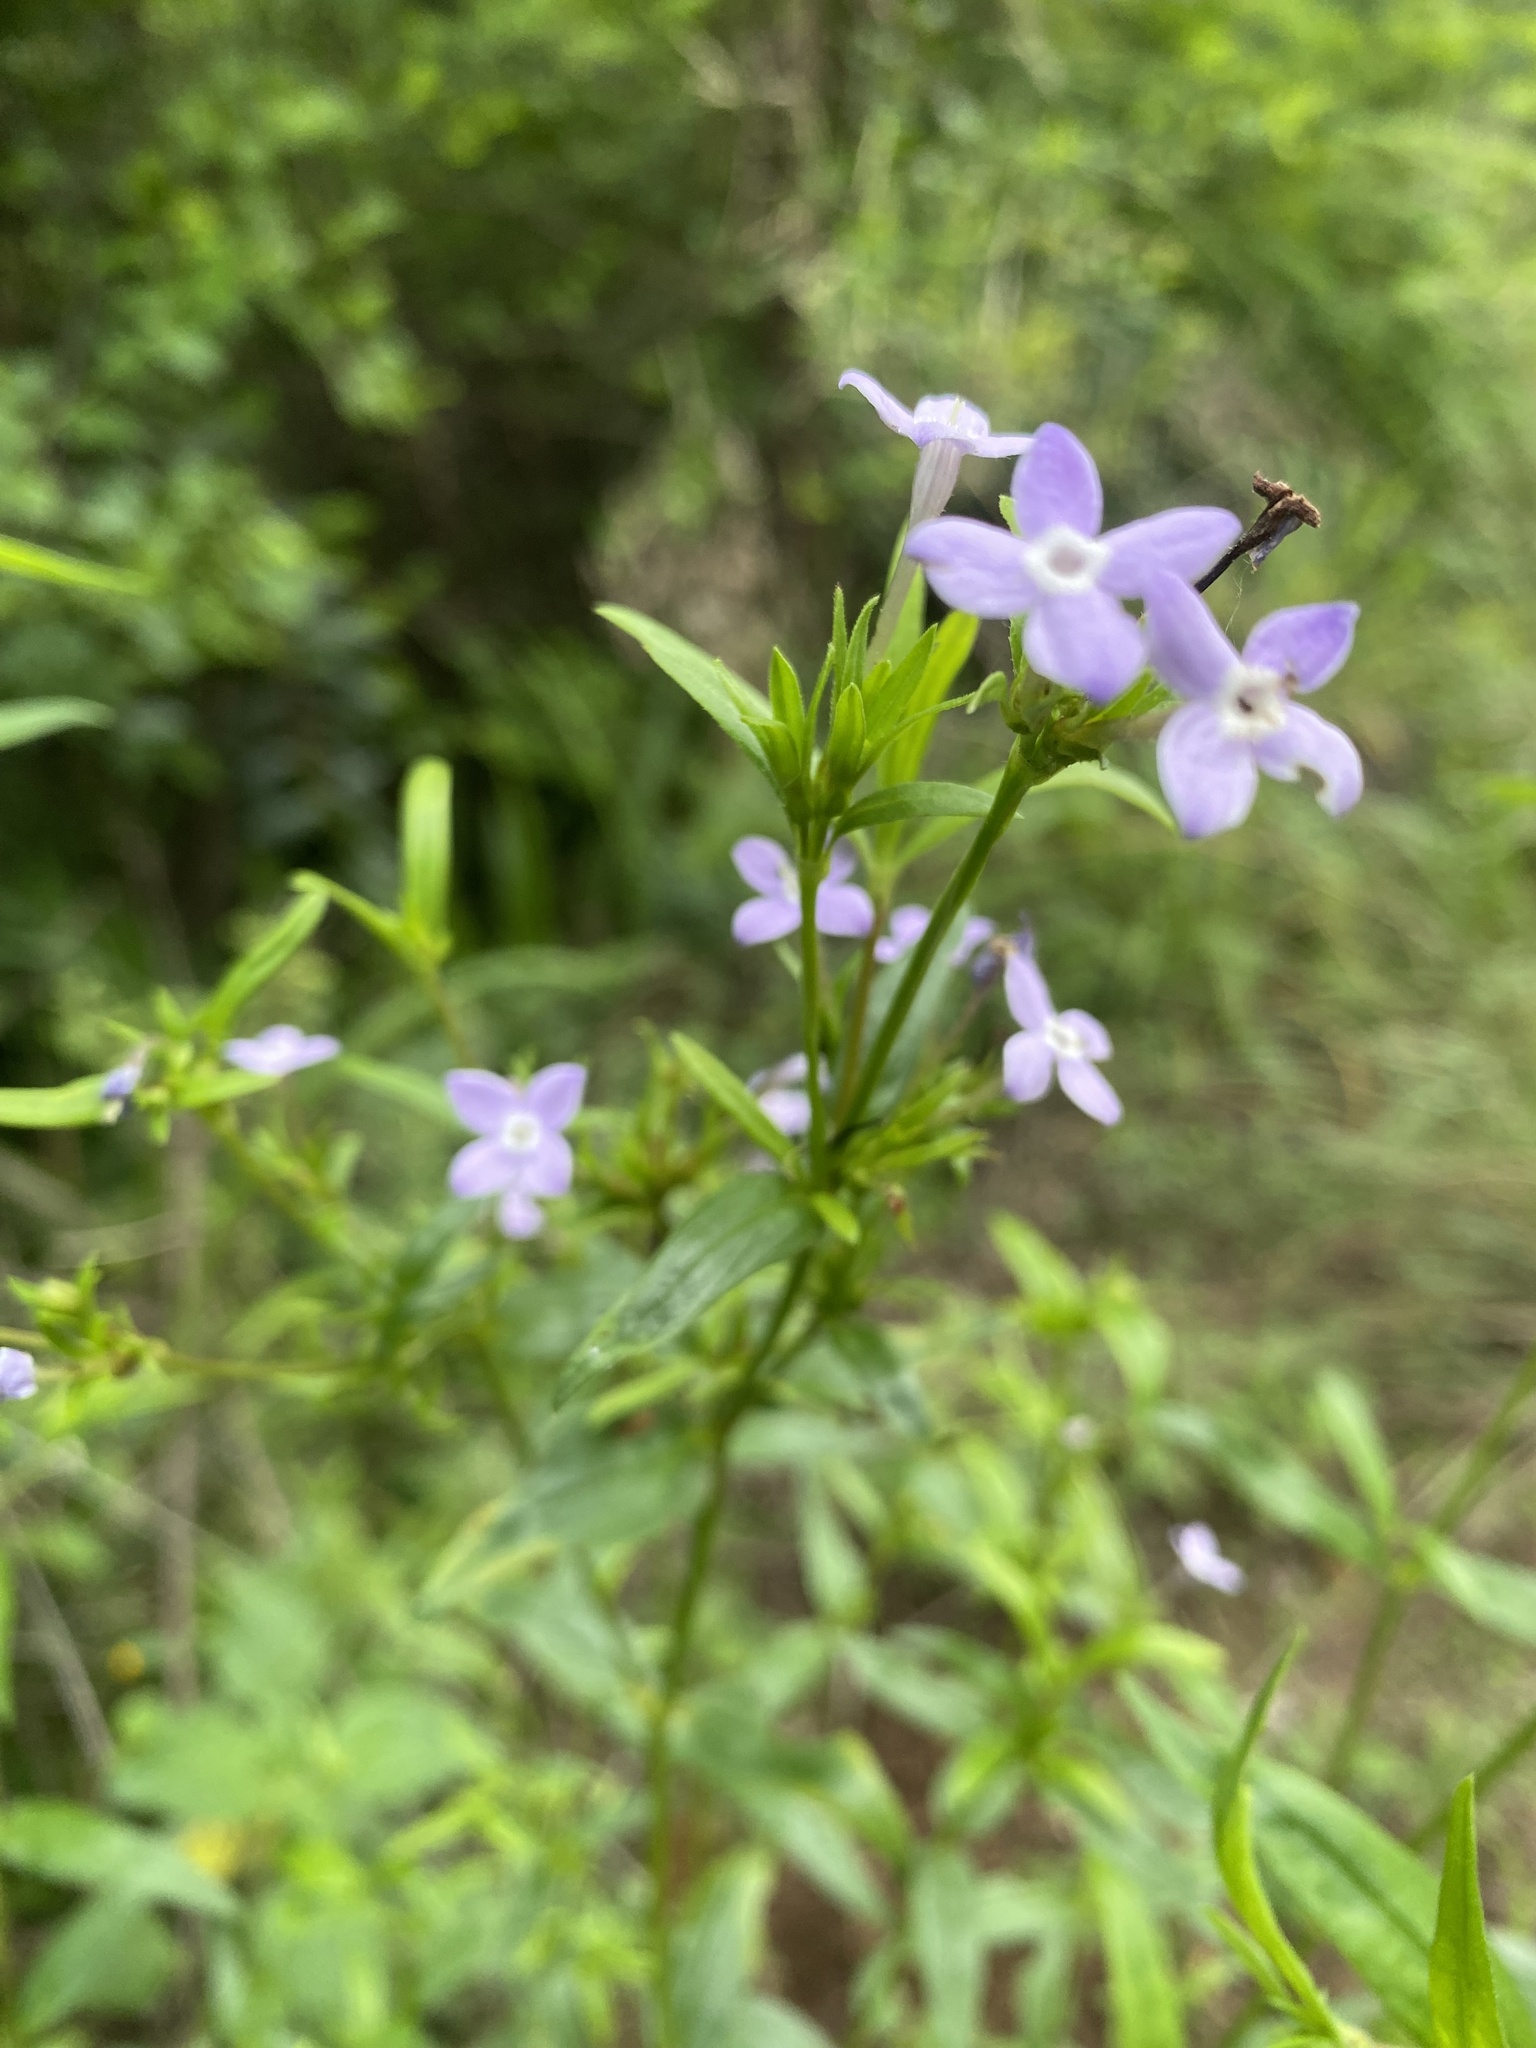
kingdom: Plantae
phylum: Tracheophyta
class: Magnoliopsida
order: Gentianales
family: Rubiaceae
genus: Conostomium
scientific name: Conostomium natalense
